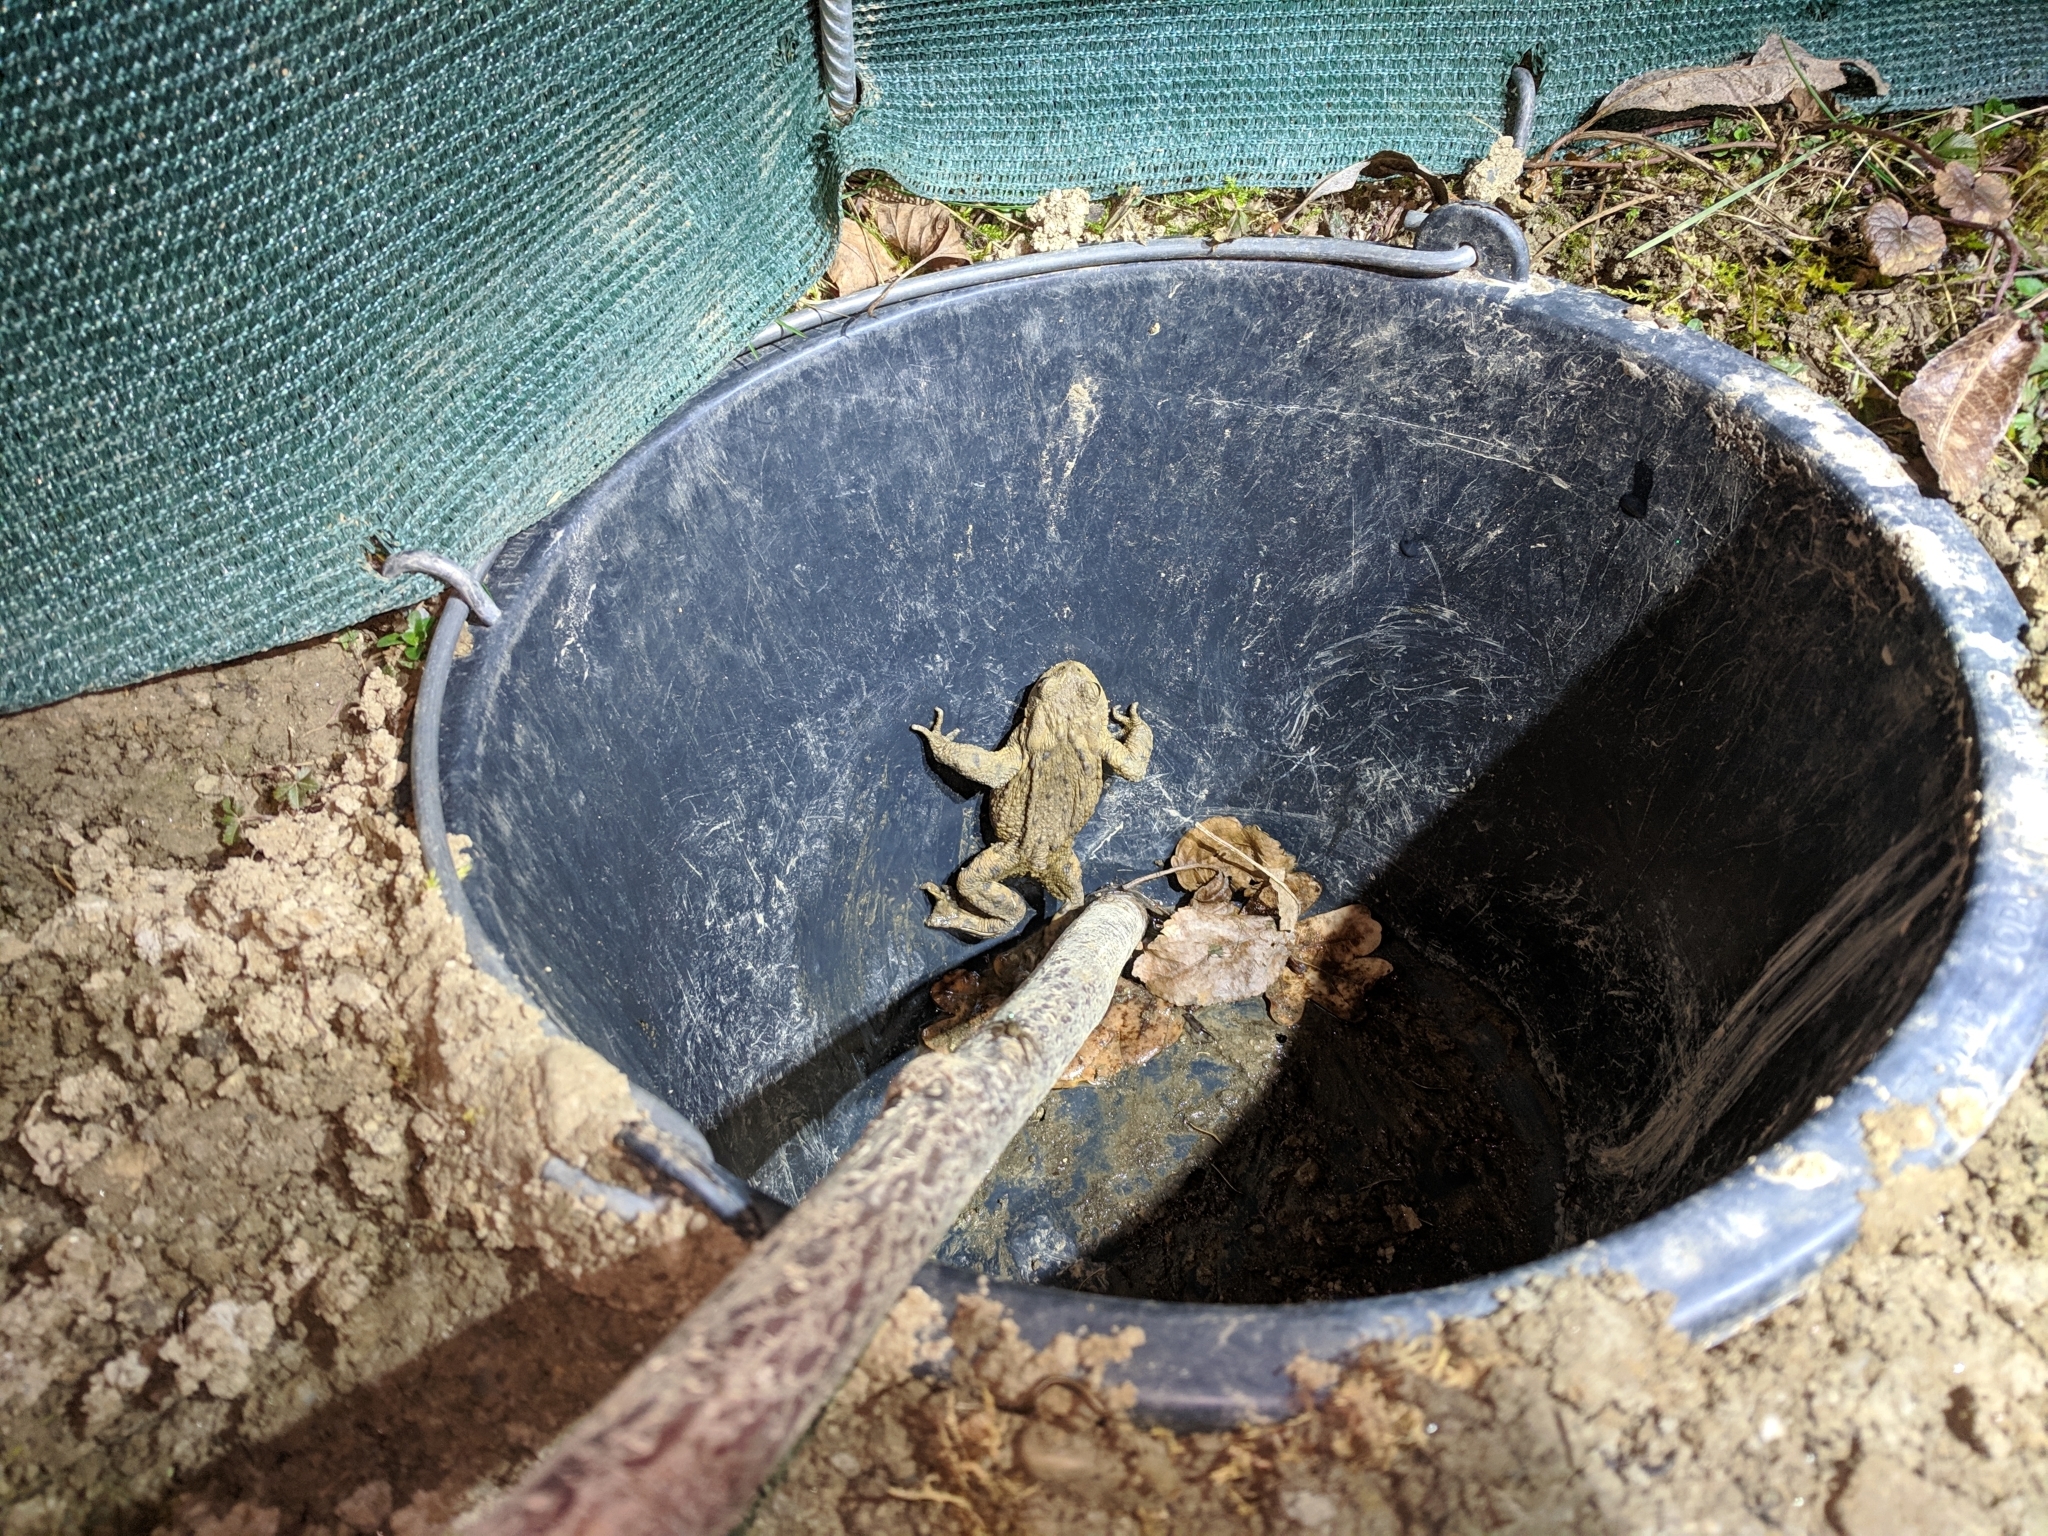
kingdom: Animalia
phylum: Chordata
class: Amphibia
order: Anura
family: Bufonidae
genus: Bufo
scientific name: Bufo bufo
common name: Common toad
